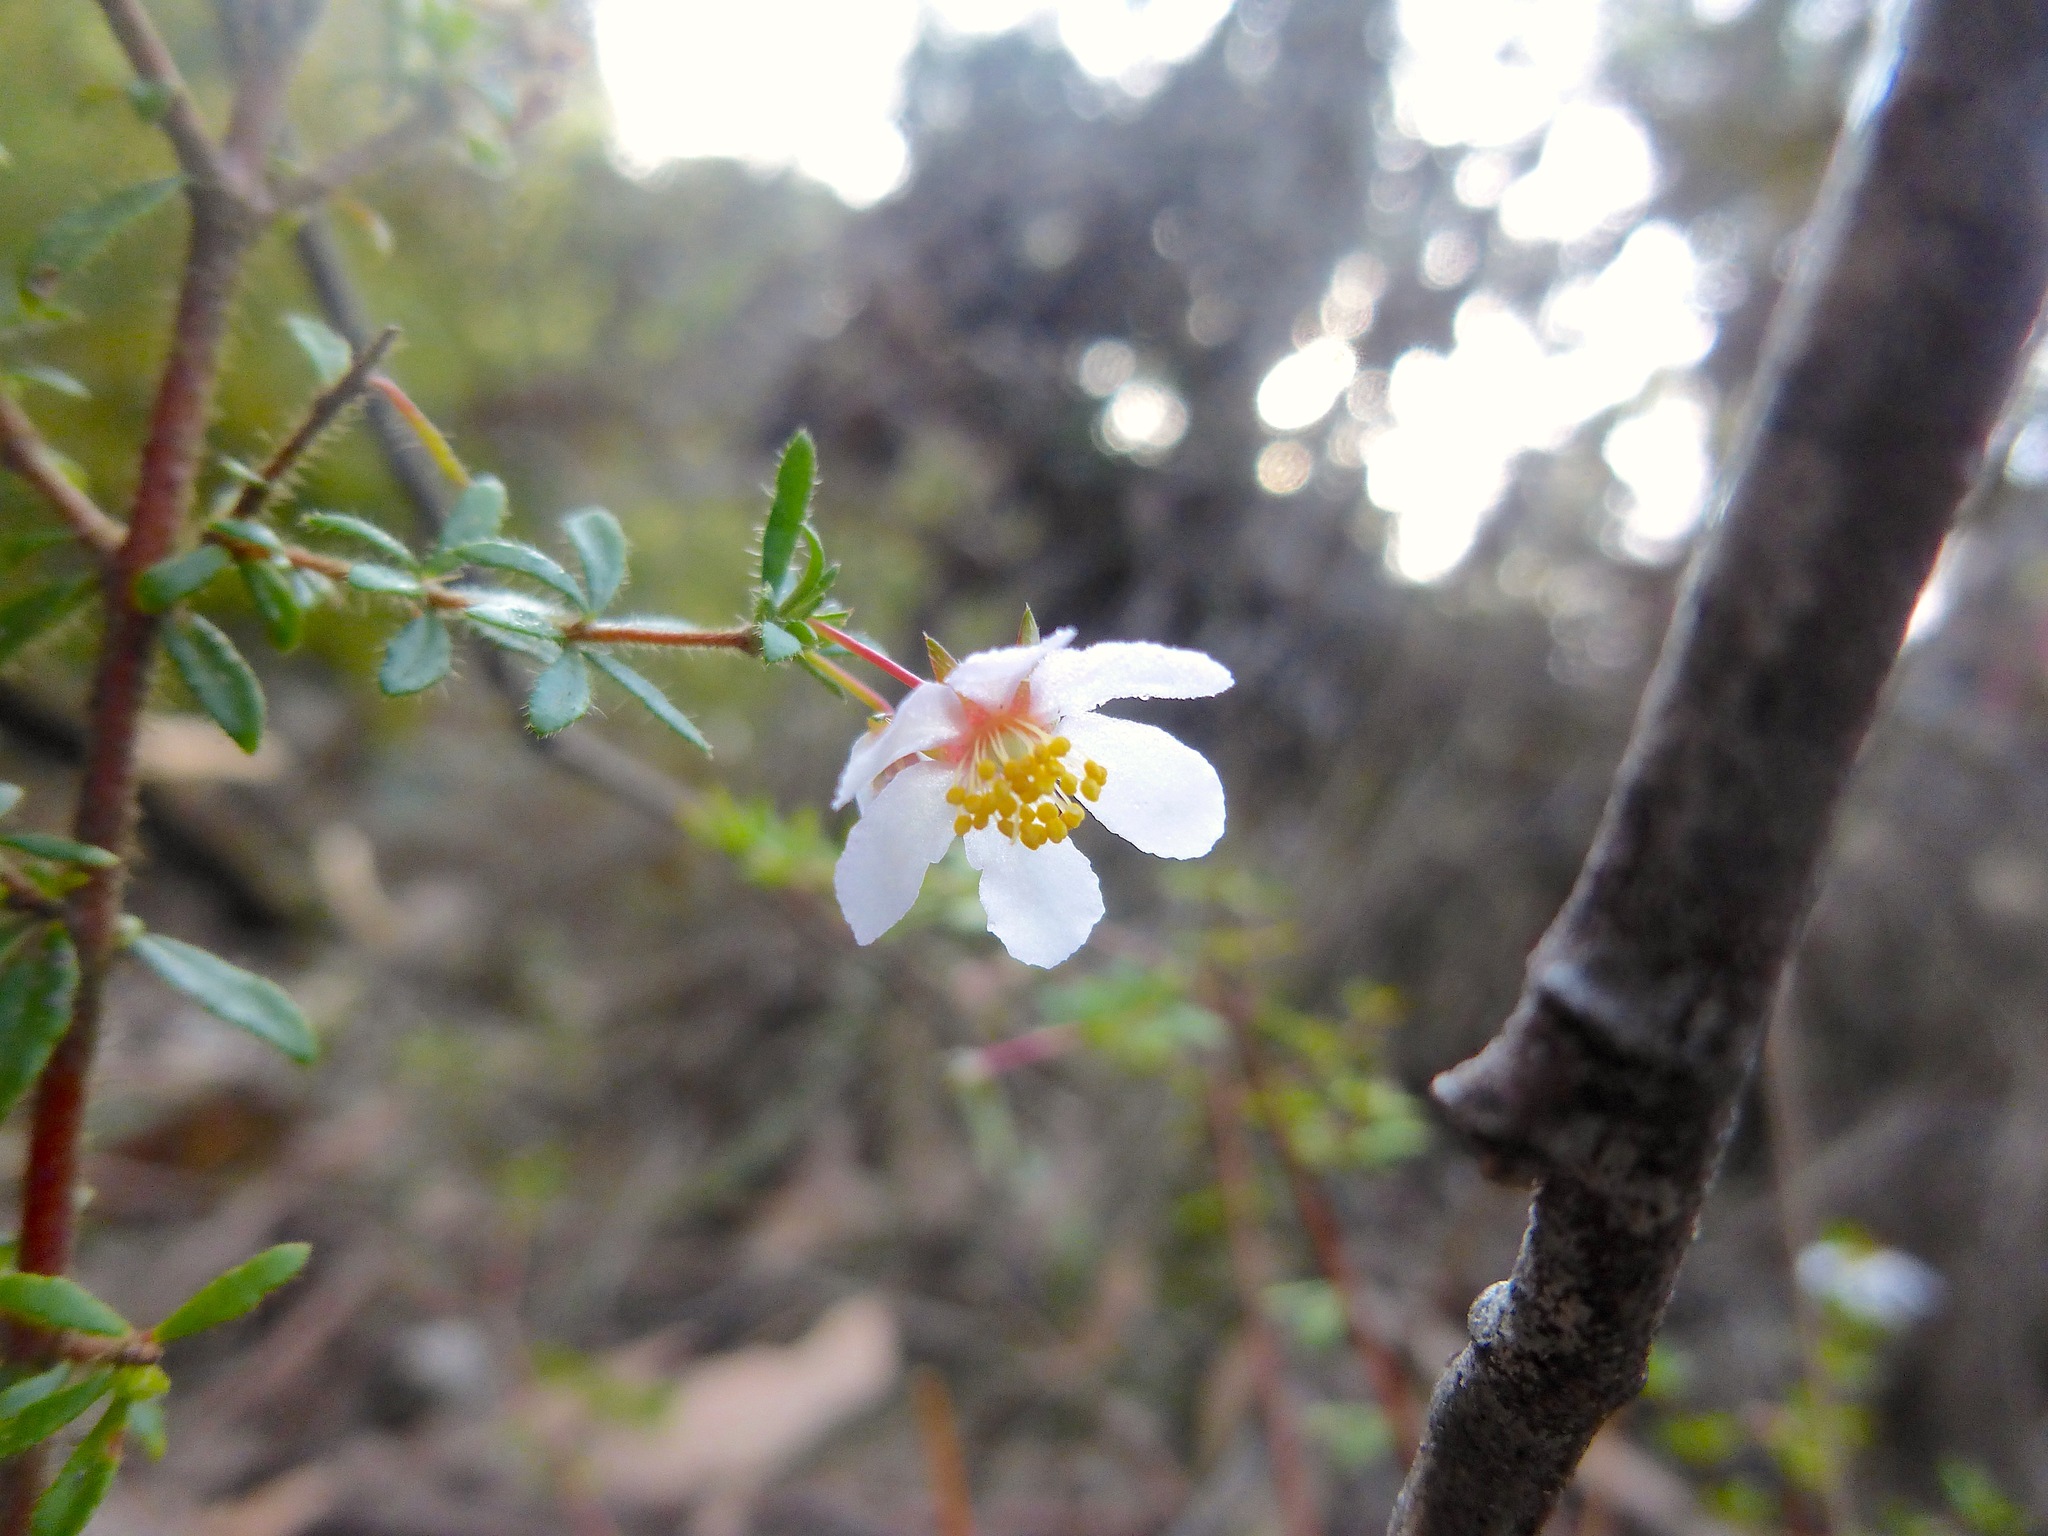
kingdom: Plantae
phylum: Tracheophyta
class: Magnoliopsida
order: Oxalidales
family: Cunoniaceae
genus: Bauera
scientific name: Bauera rubioides
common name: River-rose
